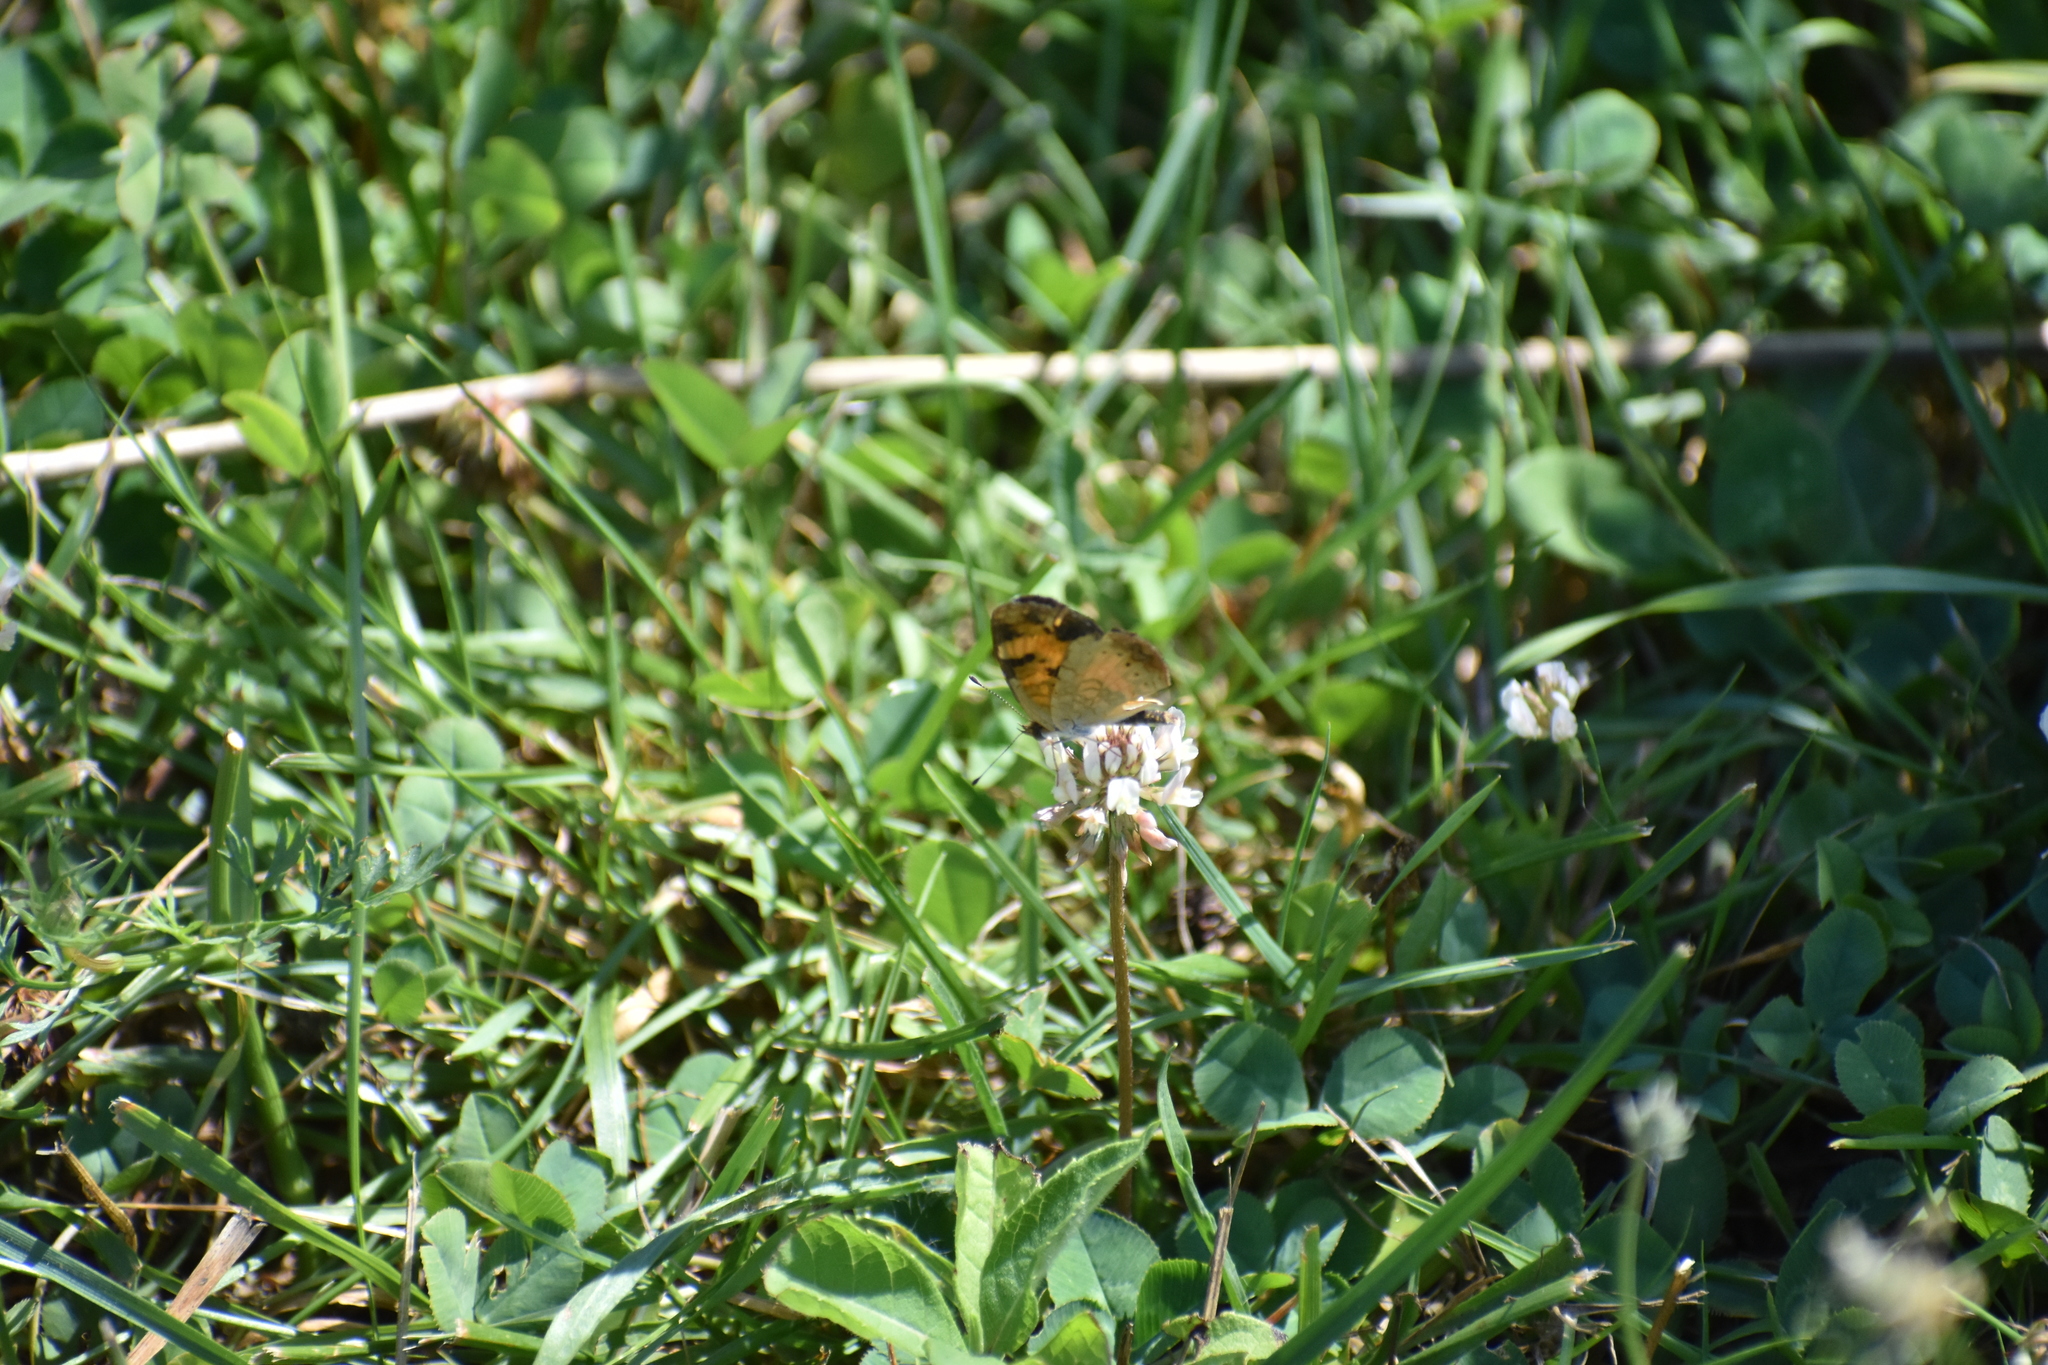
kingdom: Animalia
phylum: Arthropoda
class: Insecta
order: Lepidoptera
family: Nymphalidae
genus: Phyciodes
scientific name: Phyciodes tharos
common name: Pearl crescent
